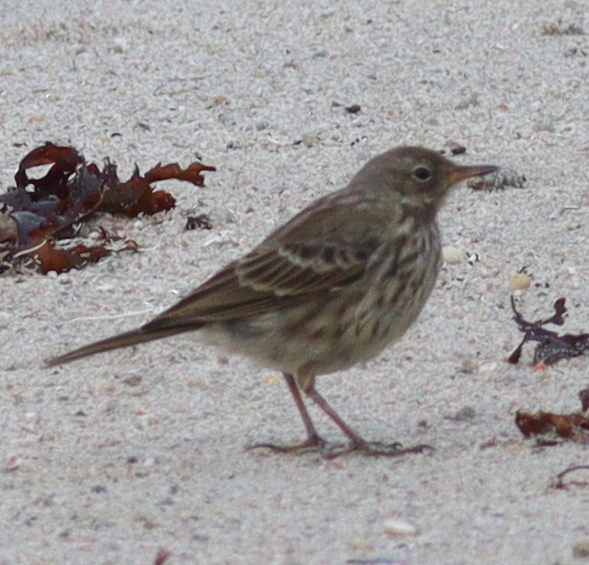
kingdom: Animalia
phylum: Chordata
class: Aves
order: Passeriformes
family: Motacillidae
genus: Anthus
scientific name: Anthus petrosus
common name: Eurasian rock pipit
